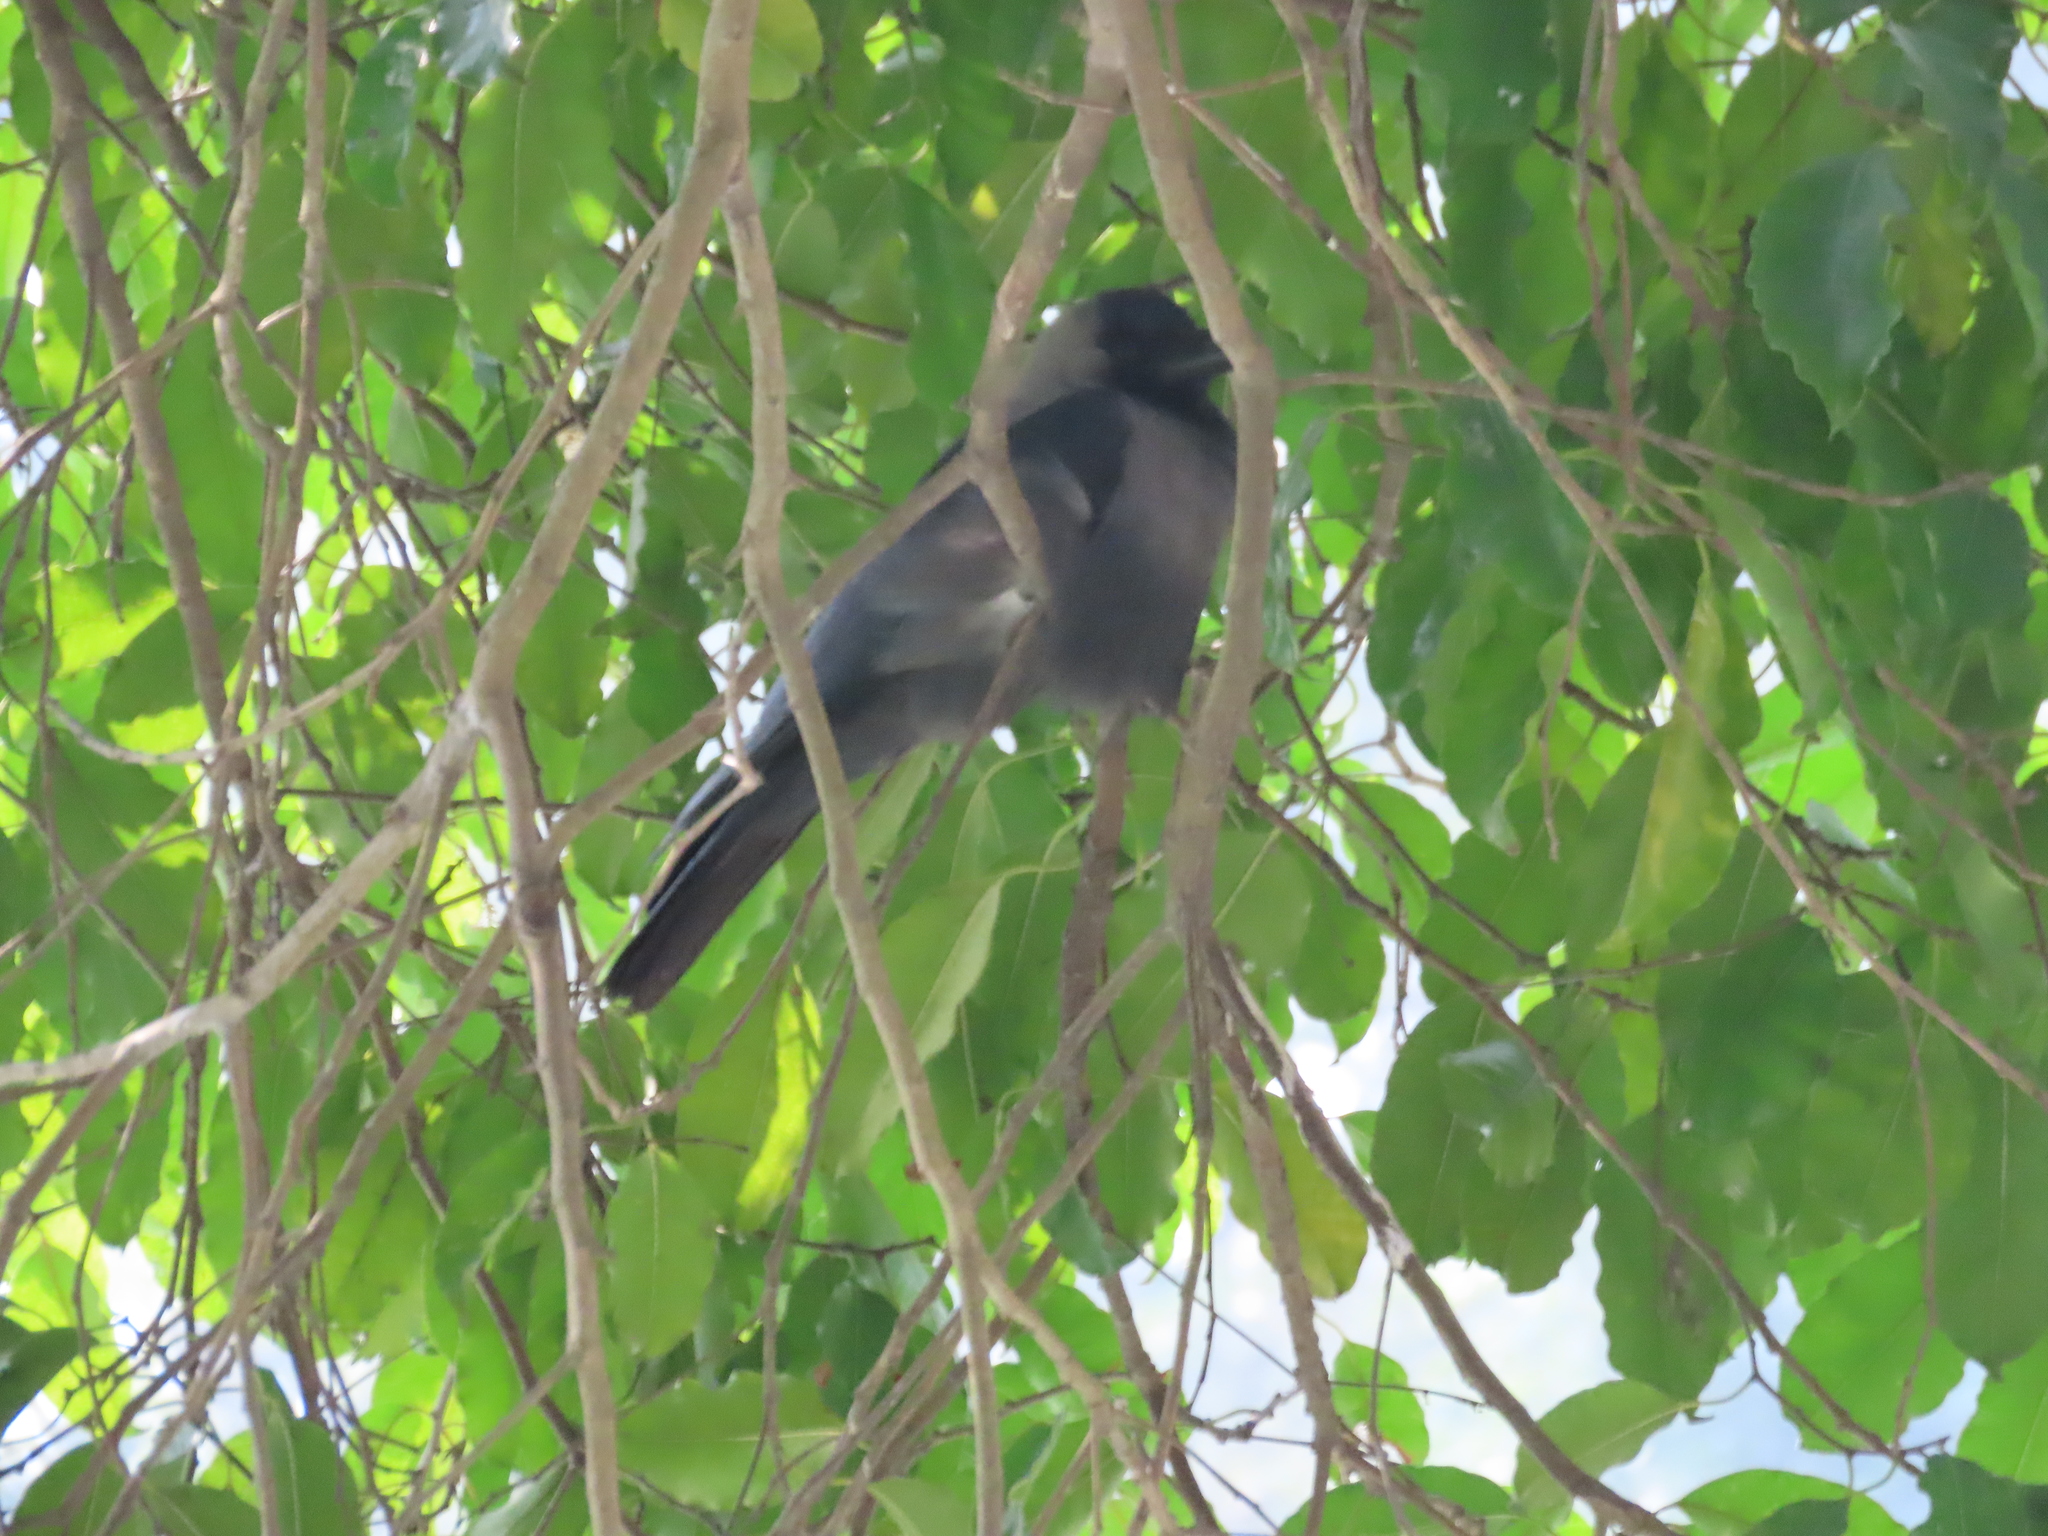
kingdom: Animalia
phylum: Chordata
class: Aves
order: Passeriformes
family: Corvidae
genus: Corvus
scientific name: Corvus splendens
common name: House crow
